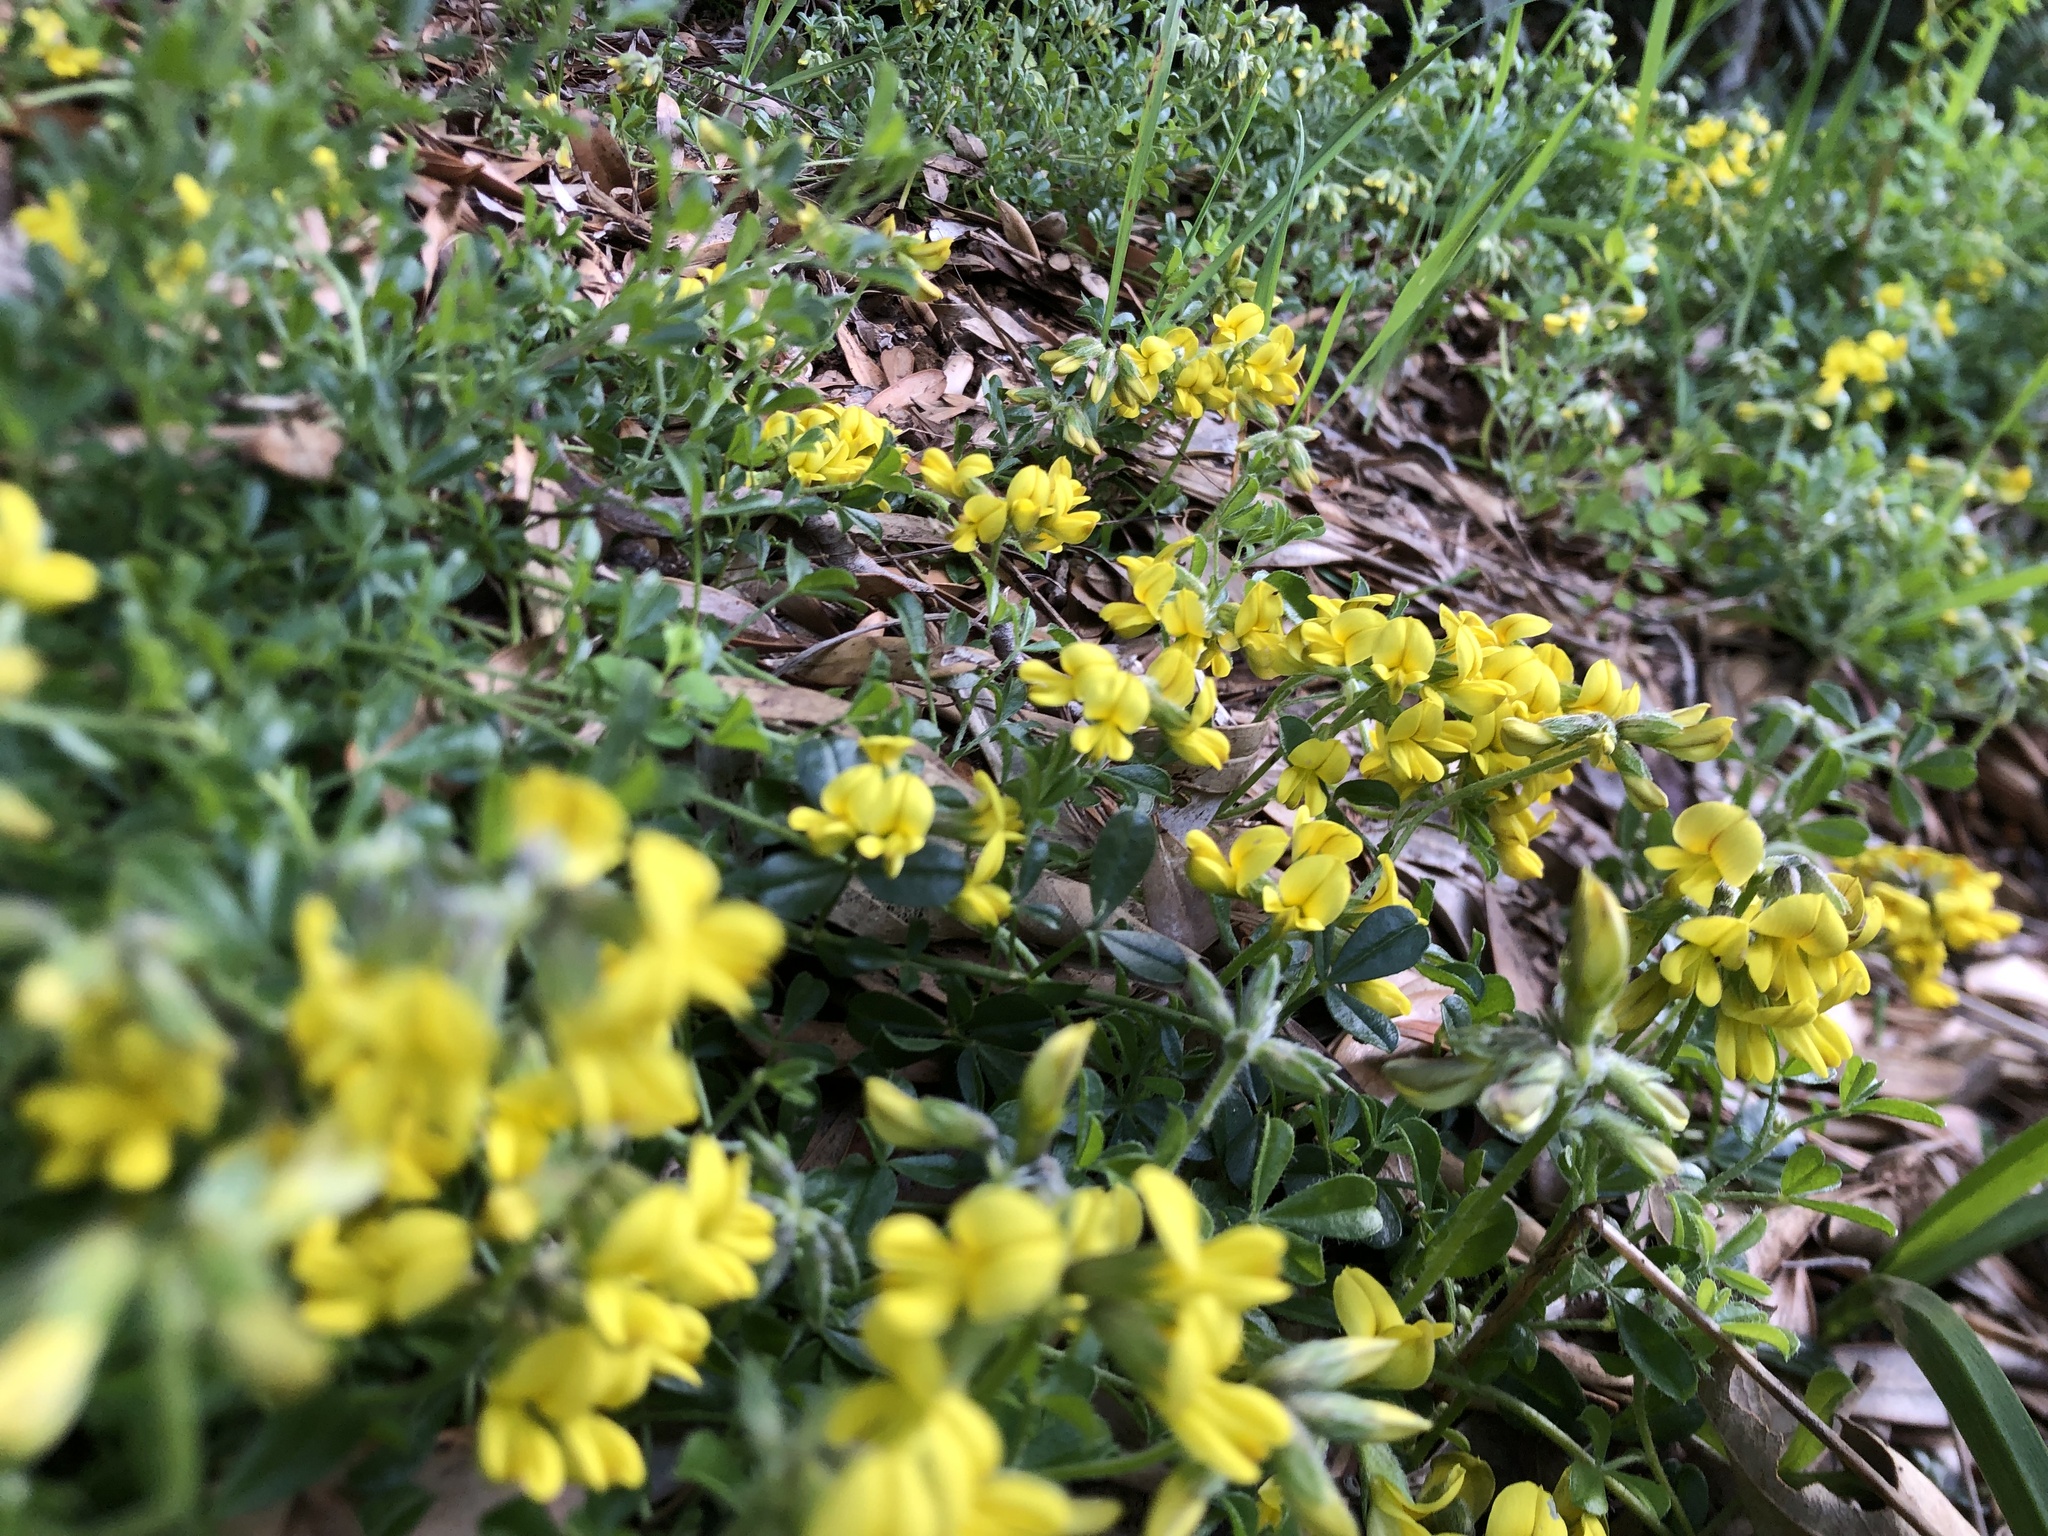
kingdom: Plantae
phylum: Tracheophyta
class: Magnoliopsida
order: Fabales
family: Fabaceae
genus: Lotononis
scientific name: Lotononis umbellata
